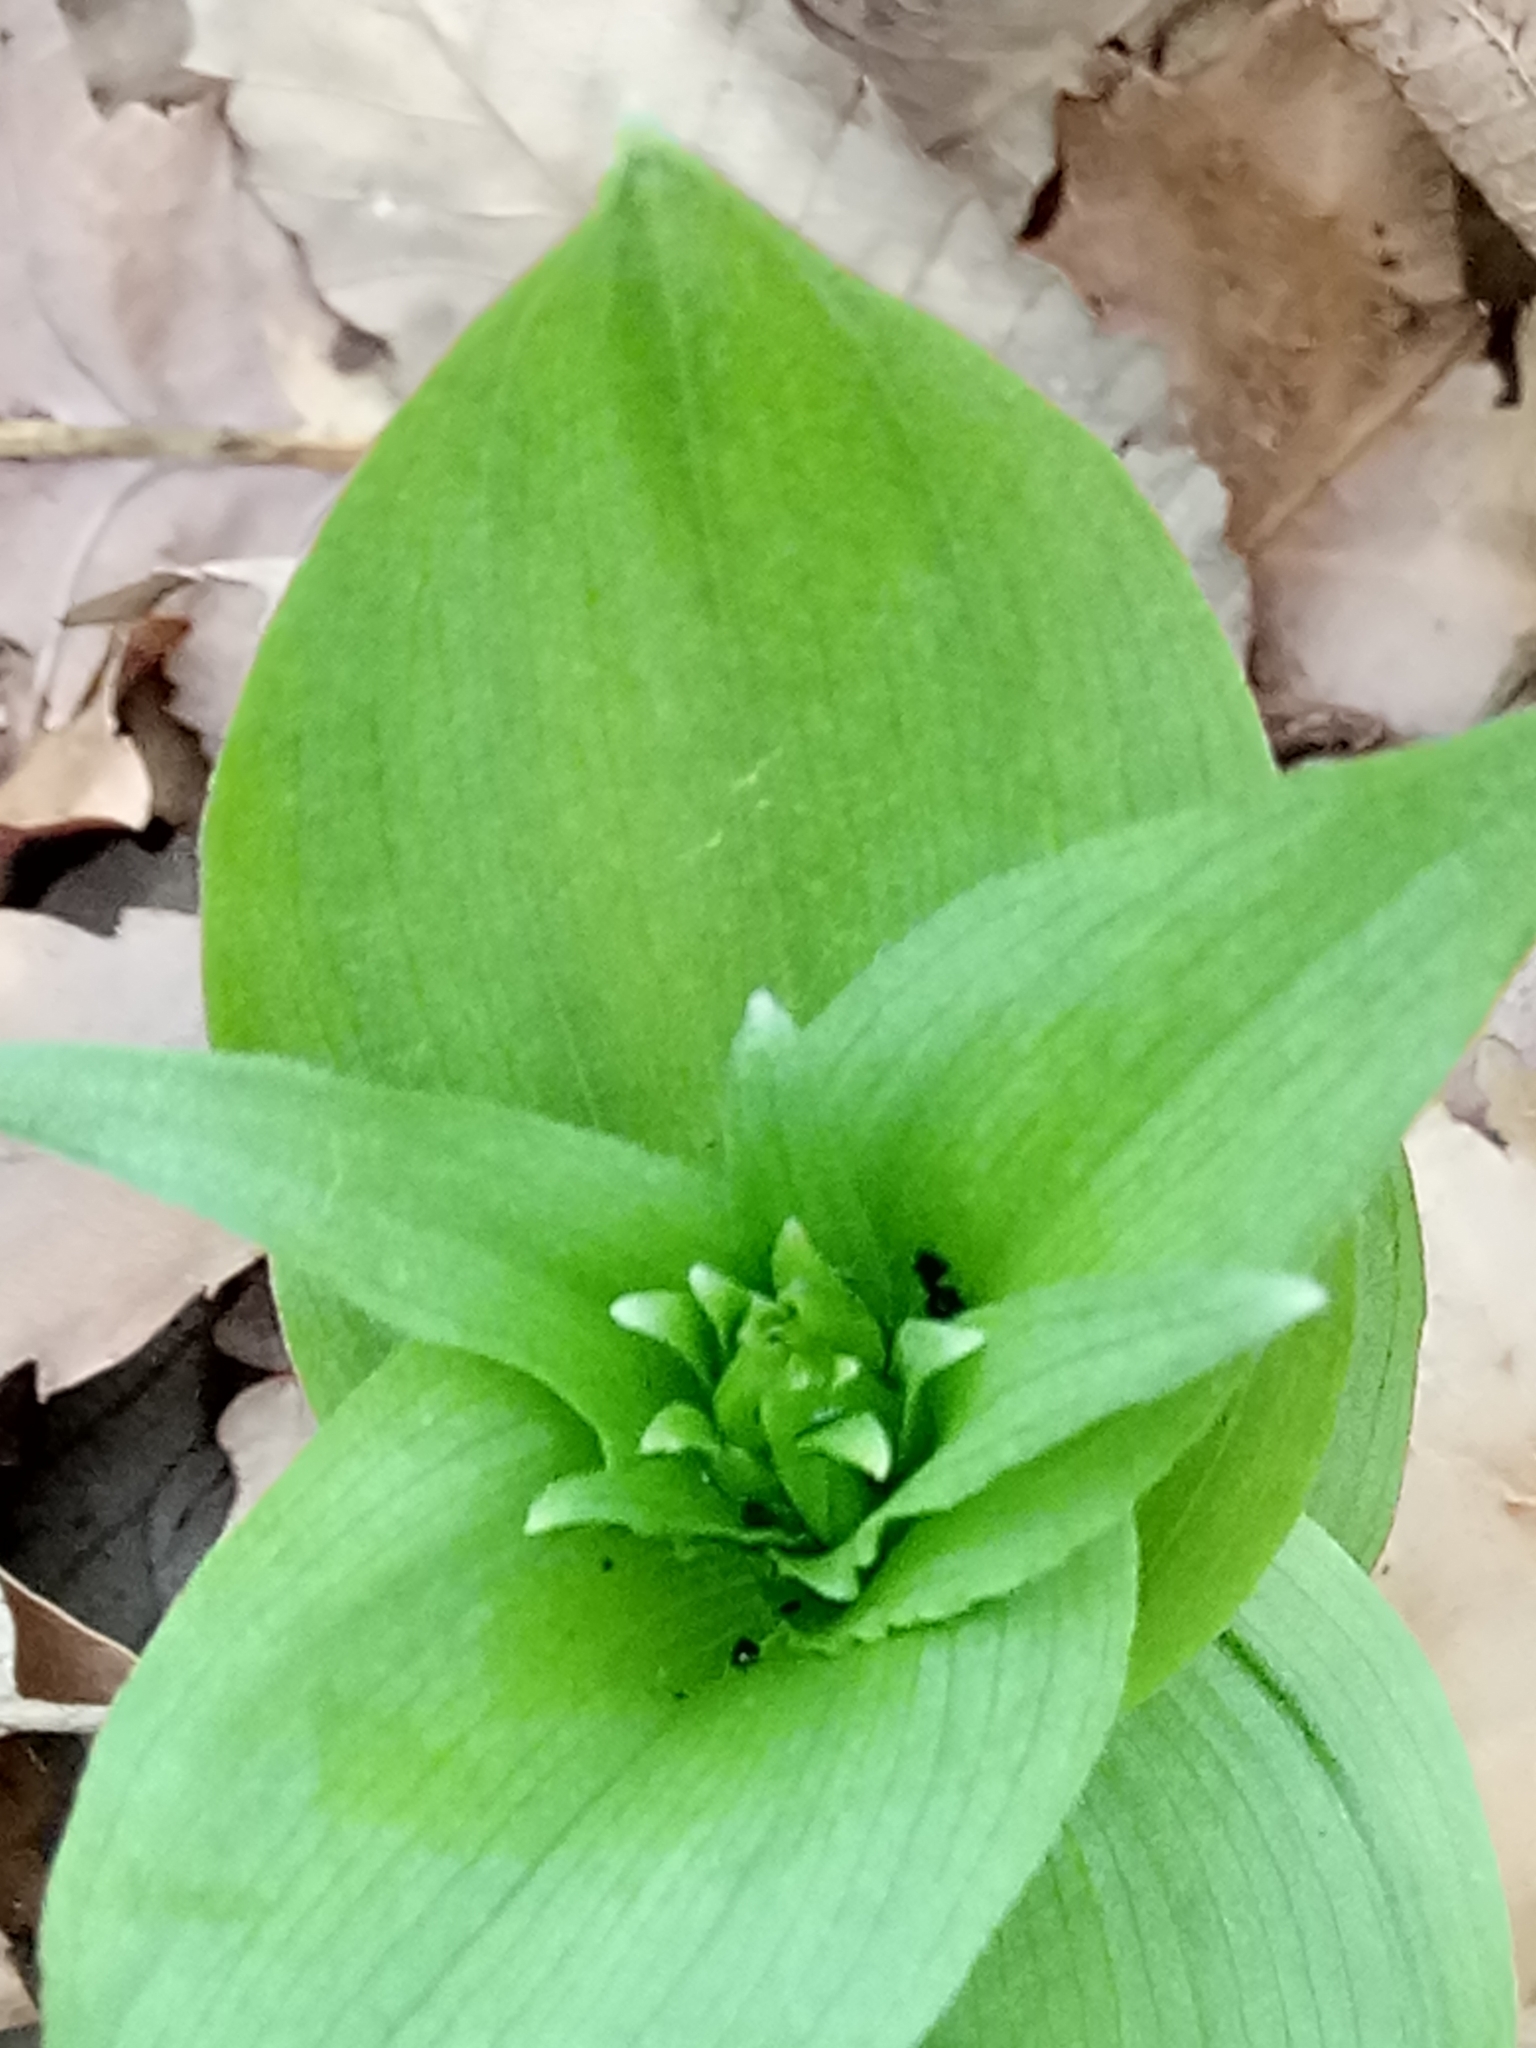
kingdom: Plantae
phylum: Tracheophyta
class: Liliopsida
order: Asparagales
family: Orchidaceae
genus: Epipactis
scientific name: Epipactis helleborine
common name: Broad-leaved helleborine
